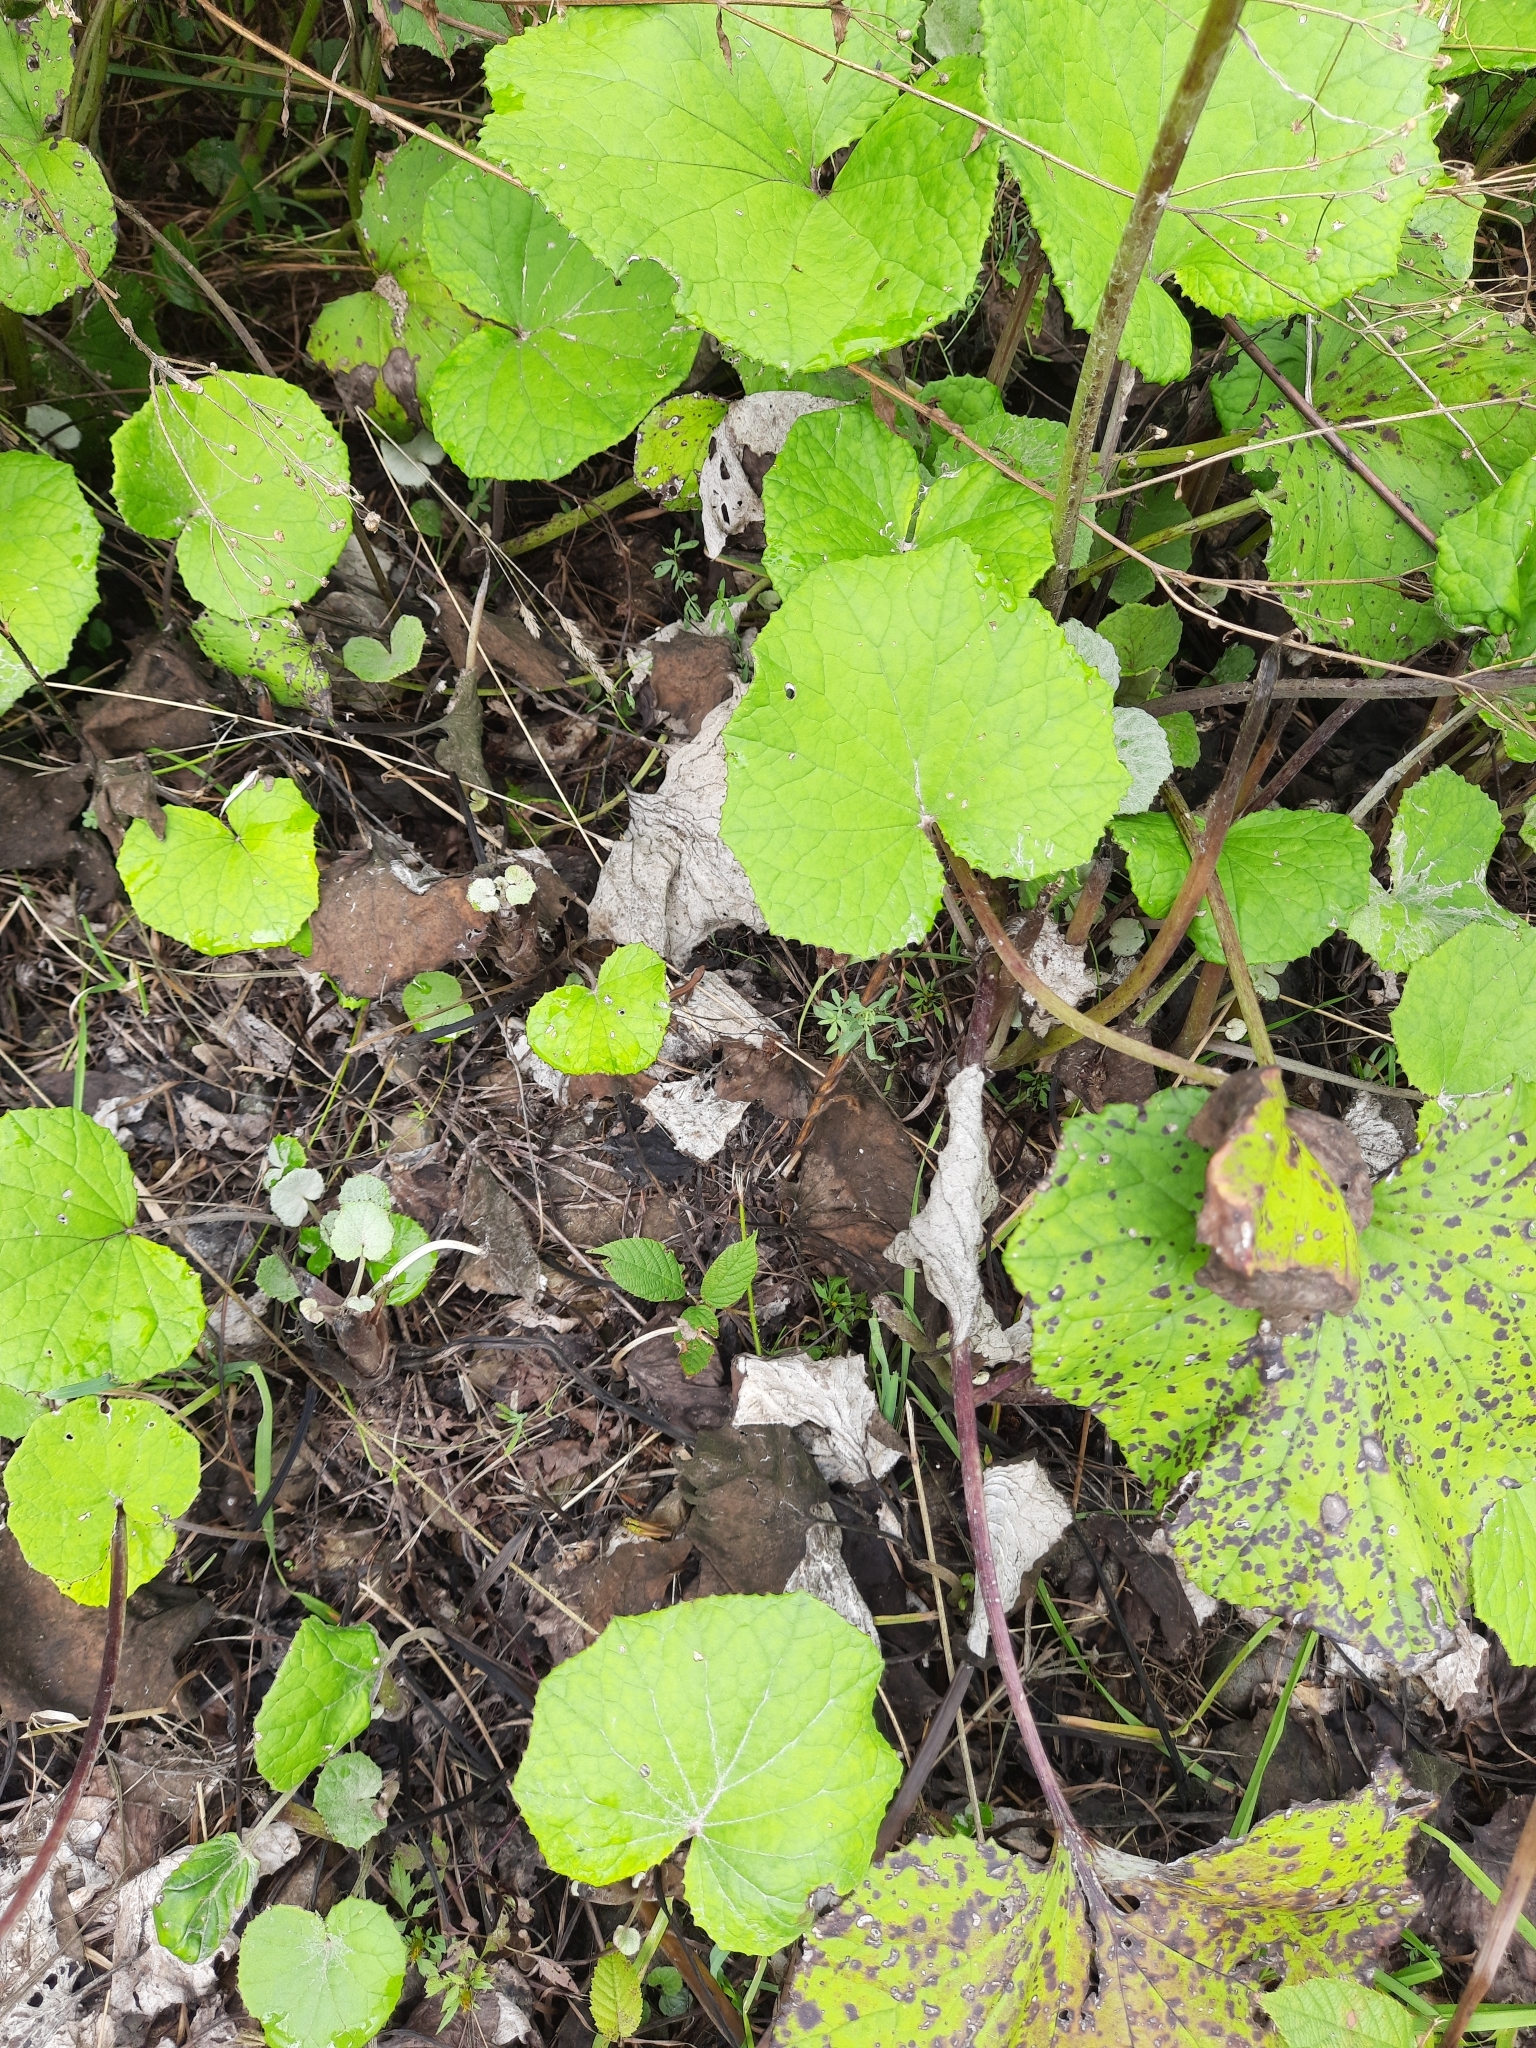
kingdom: Plantae
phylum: Tracheophyta
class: Magnoliopsida
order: Asterales
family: Asteraceae
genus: Tussilago
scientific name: Tussilago farfara
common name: Coltsfoot
